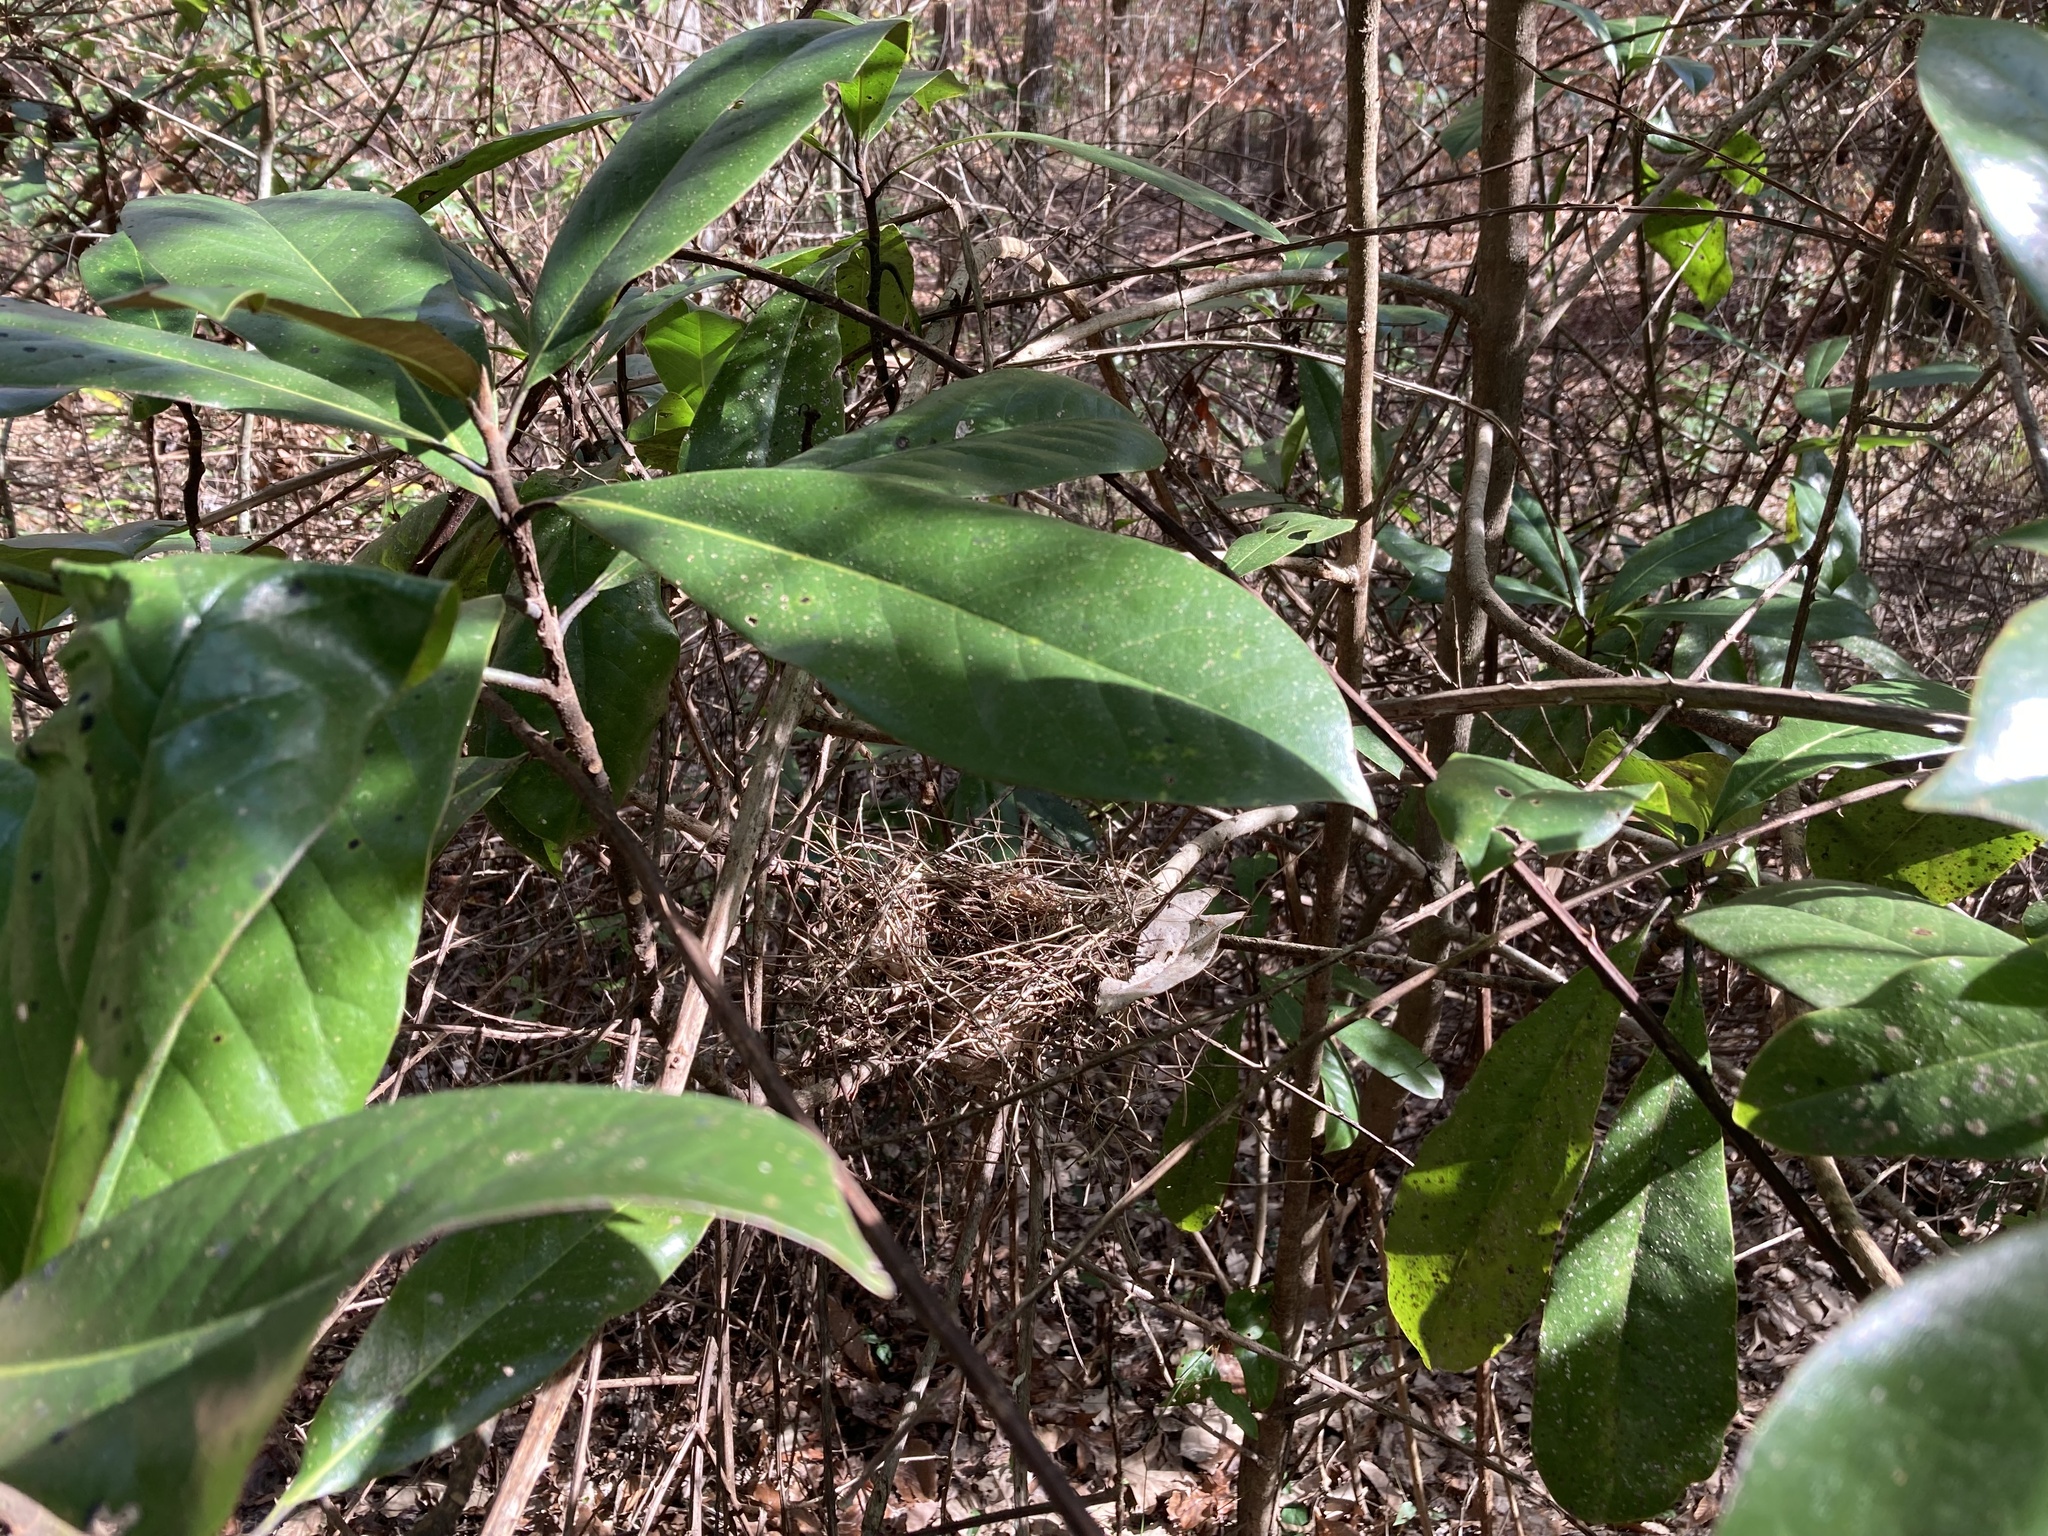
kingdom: Plantae
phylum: Tracheophyta
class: Magnoliopsida
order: Magnoliales
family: Magnoliaceae
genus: Magnolia
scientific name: Magnolia grandiflora
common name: Southern magnolia
